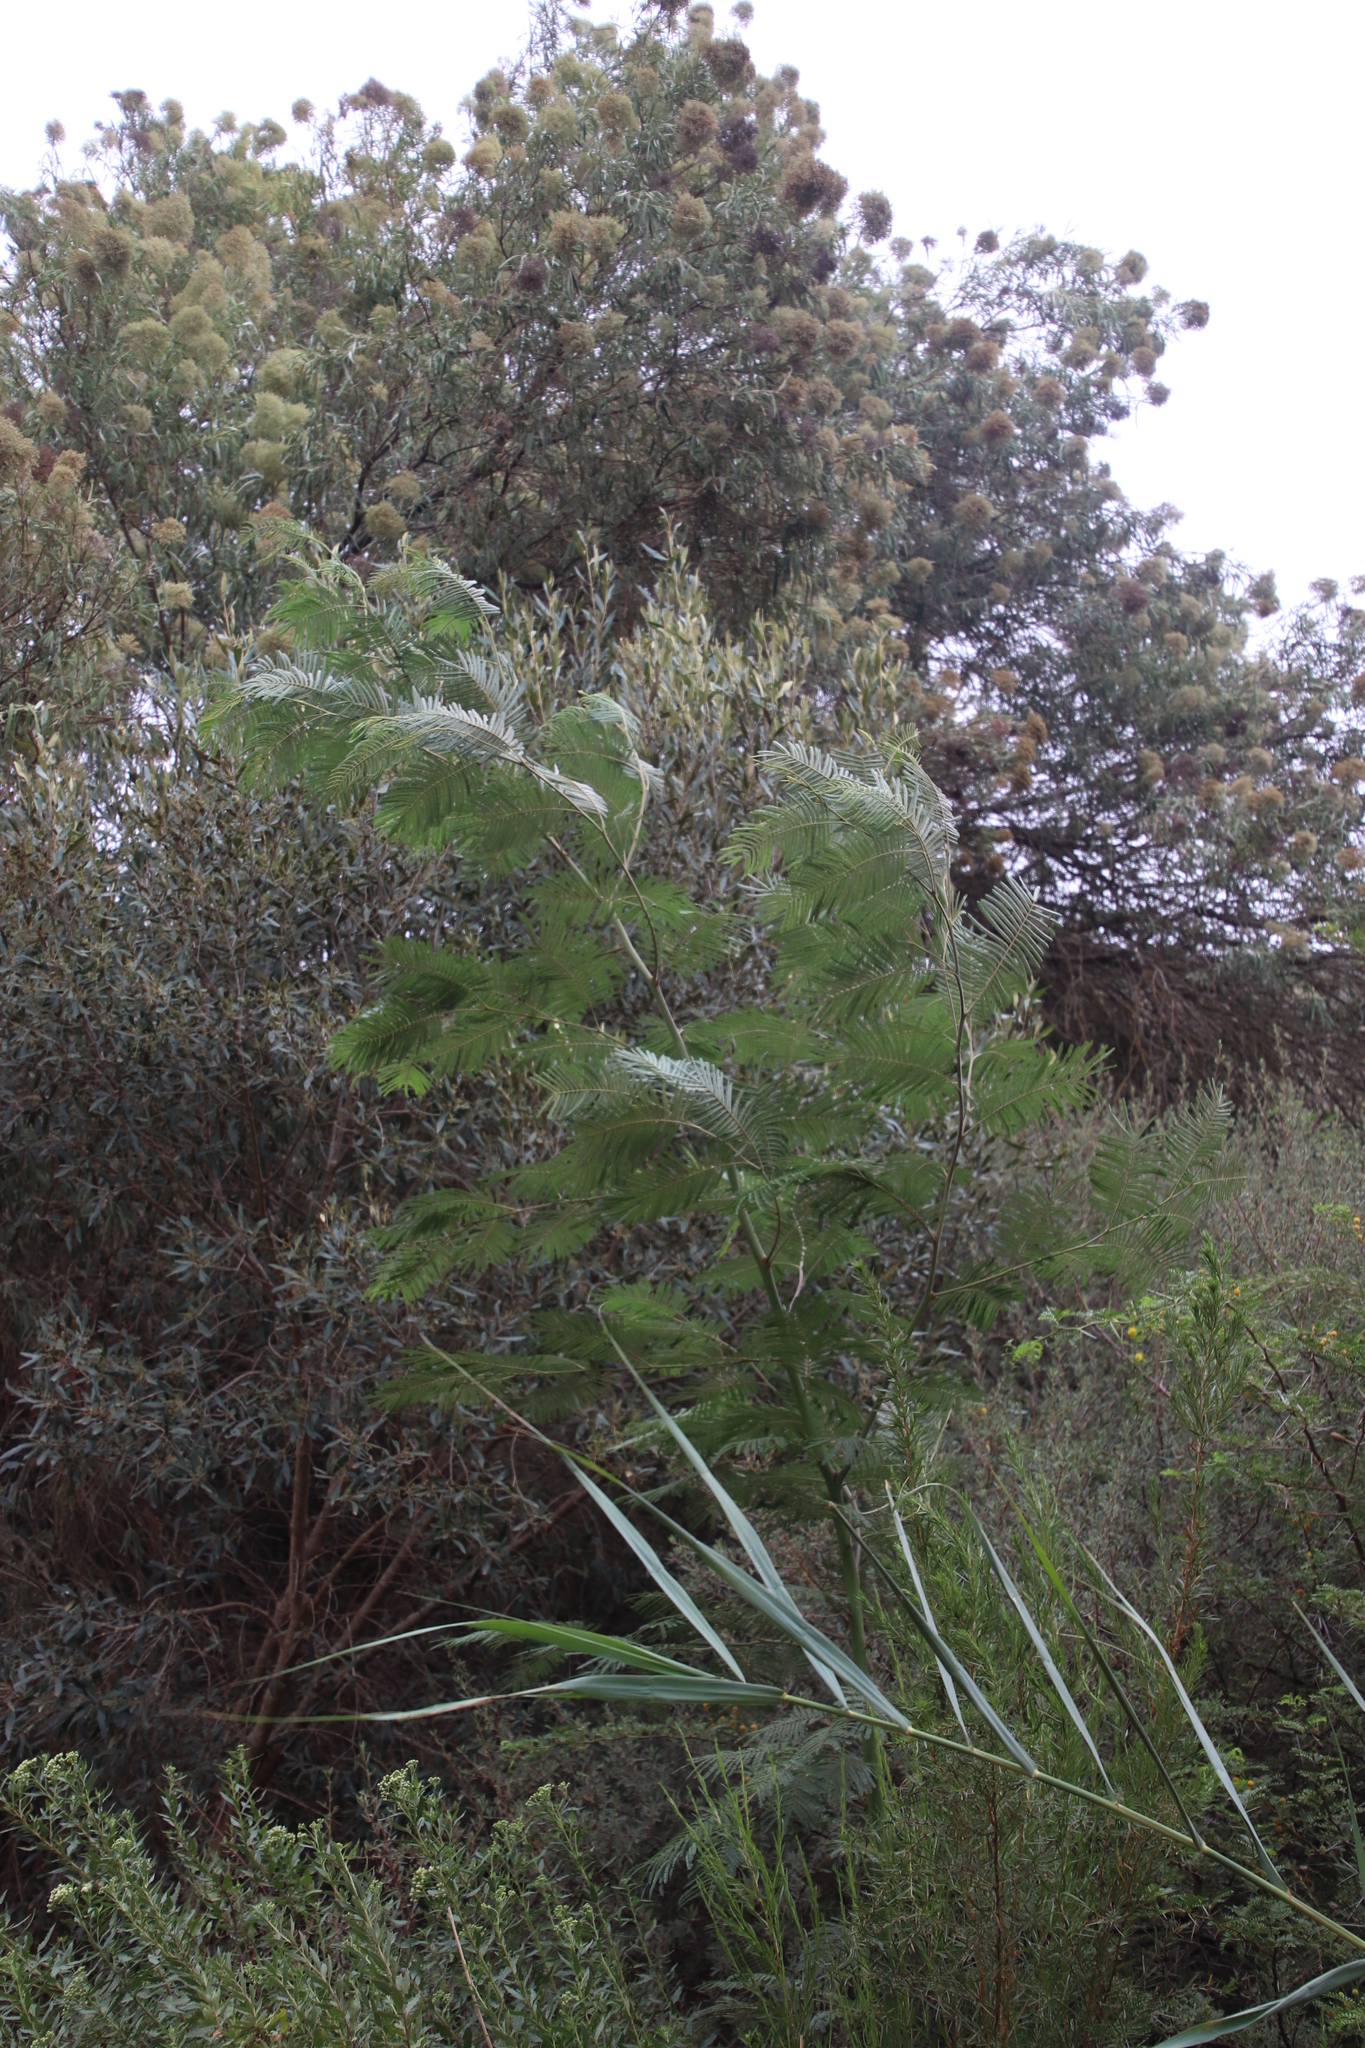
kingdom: Plantae
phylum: Tracheophyta
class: Magnoliopsida
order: Fabales
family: Fabaceae
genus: Acacia
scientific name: Acacia mearnsii
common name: Black wattle
